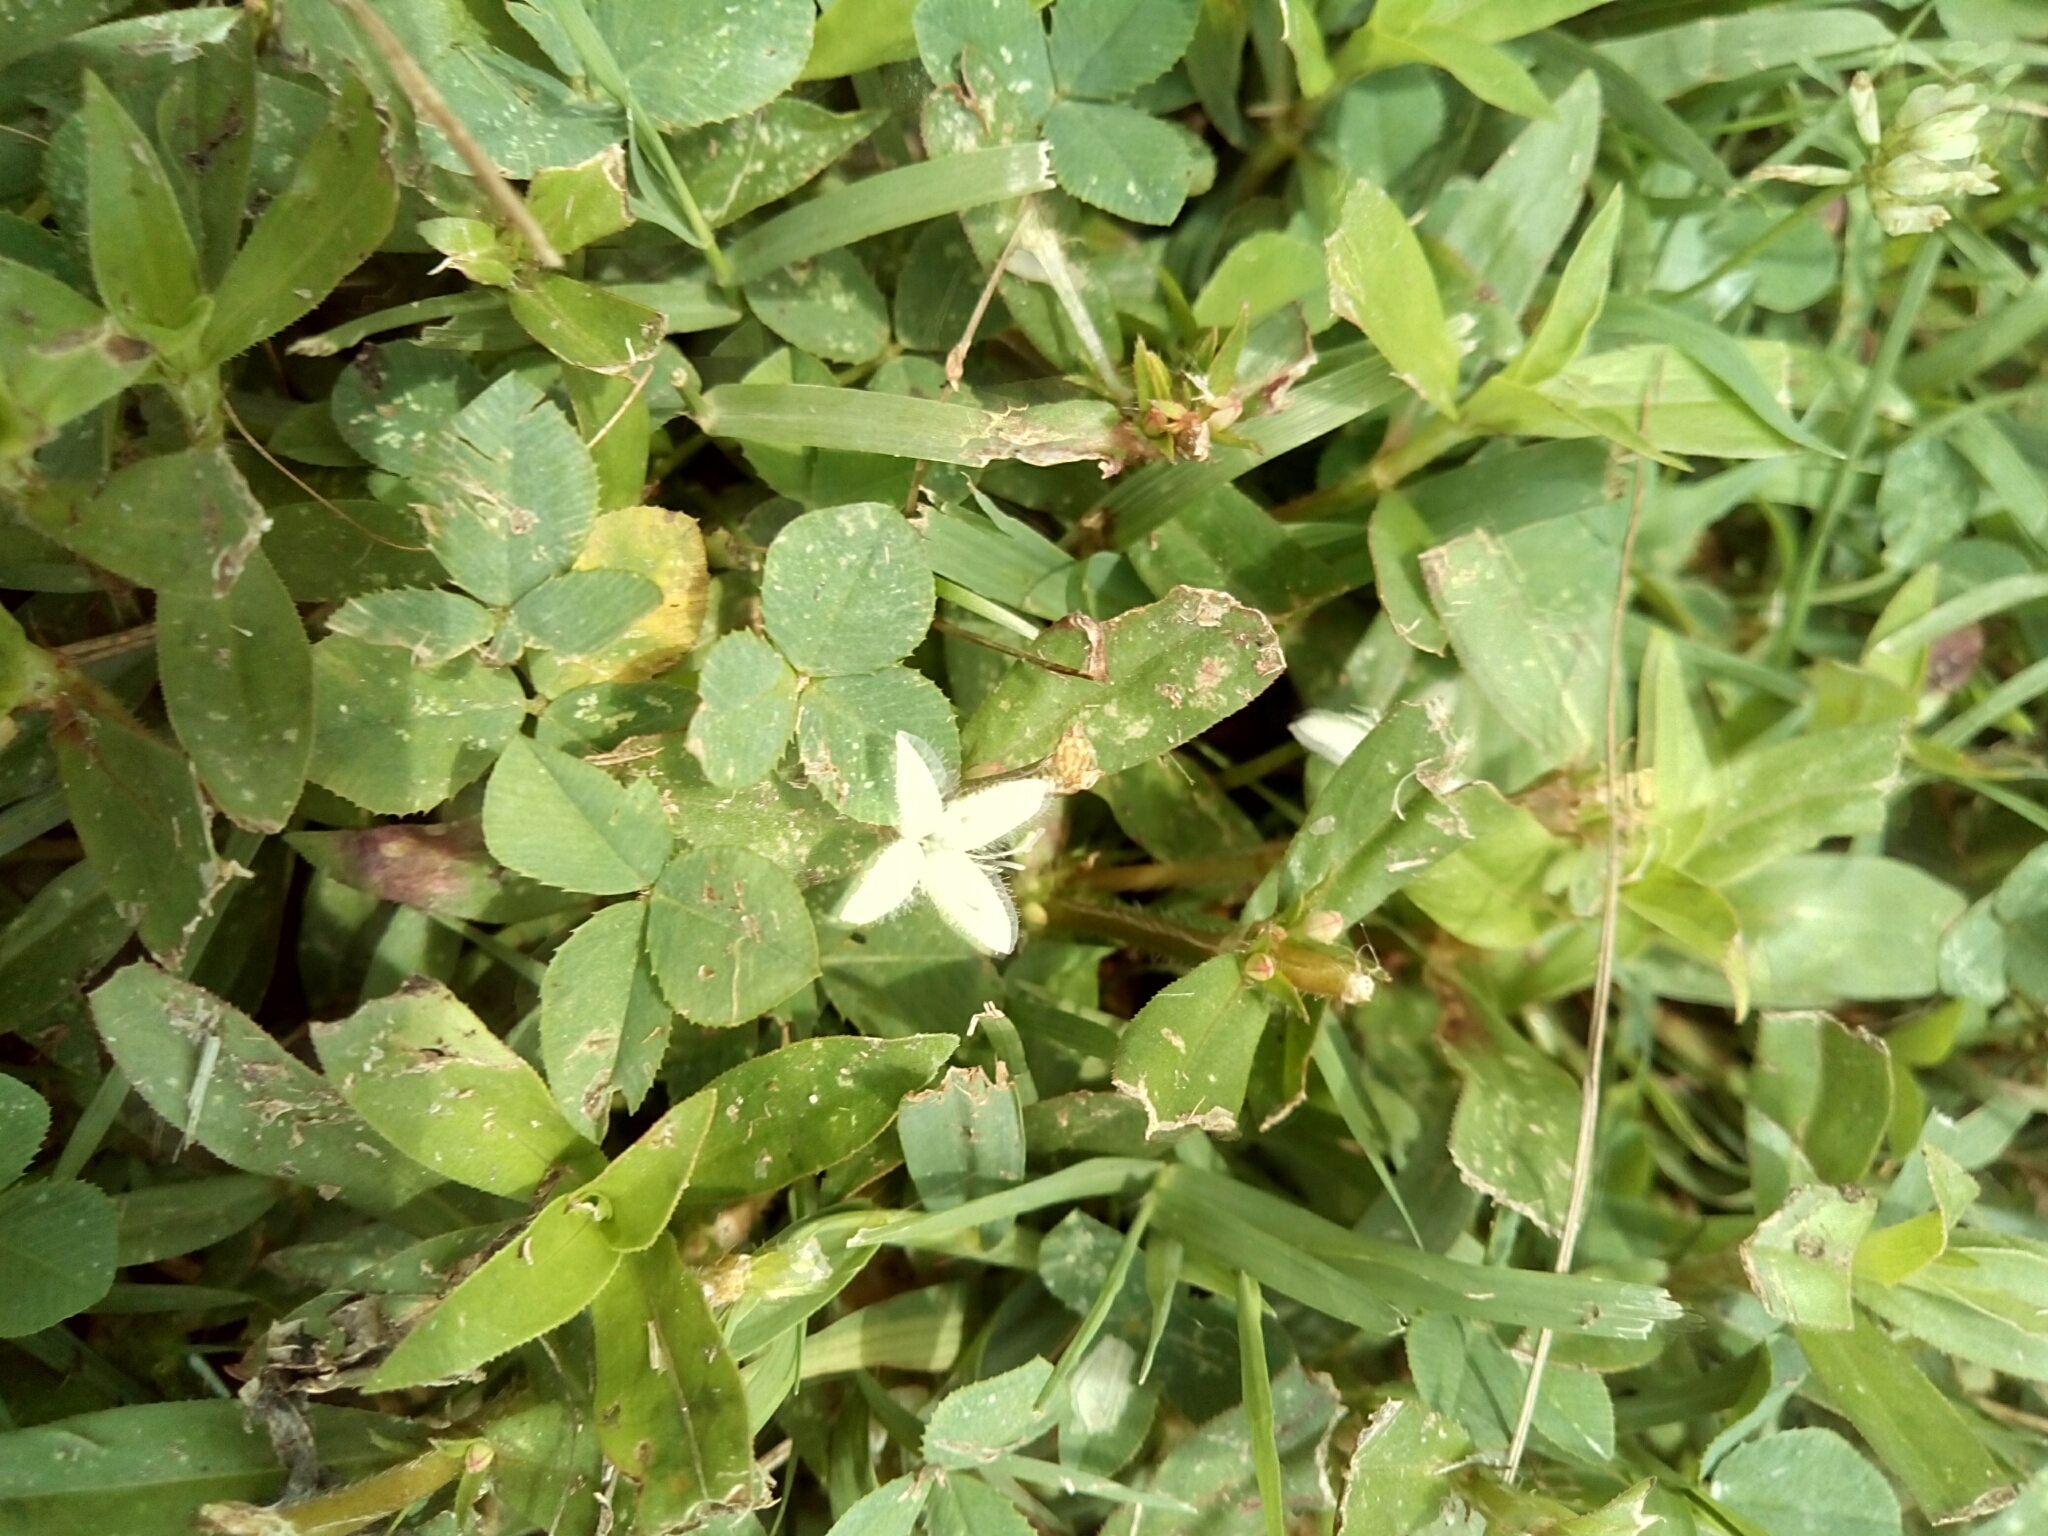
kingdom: Plantae
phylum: Tracheophyta
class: Magnoliopsida
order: Gentianales
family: Rubiaceae
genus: Diodia
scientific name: Diodia virginiana
